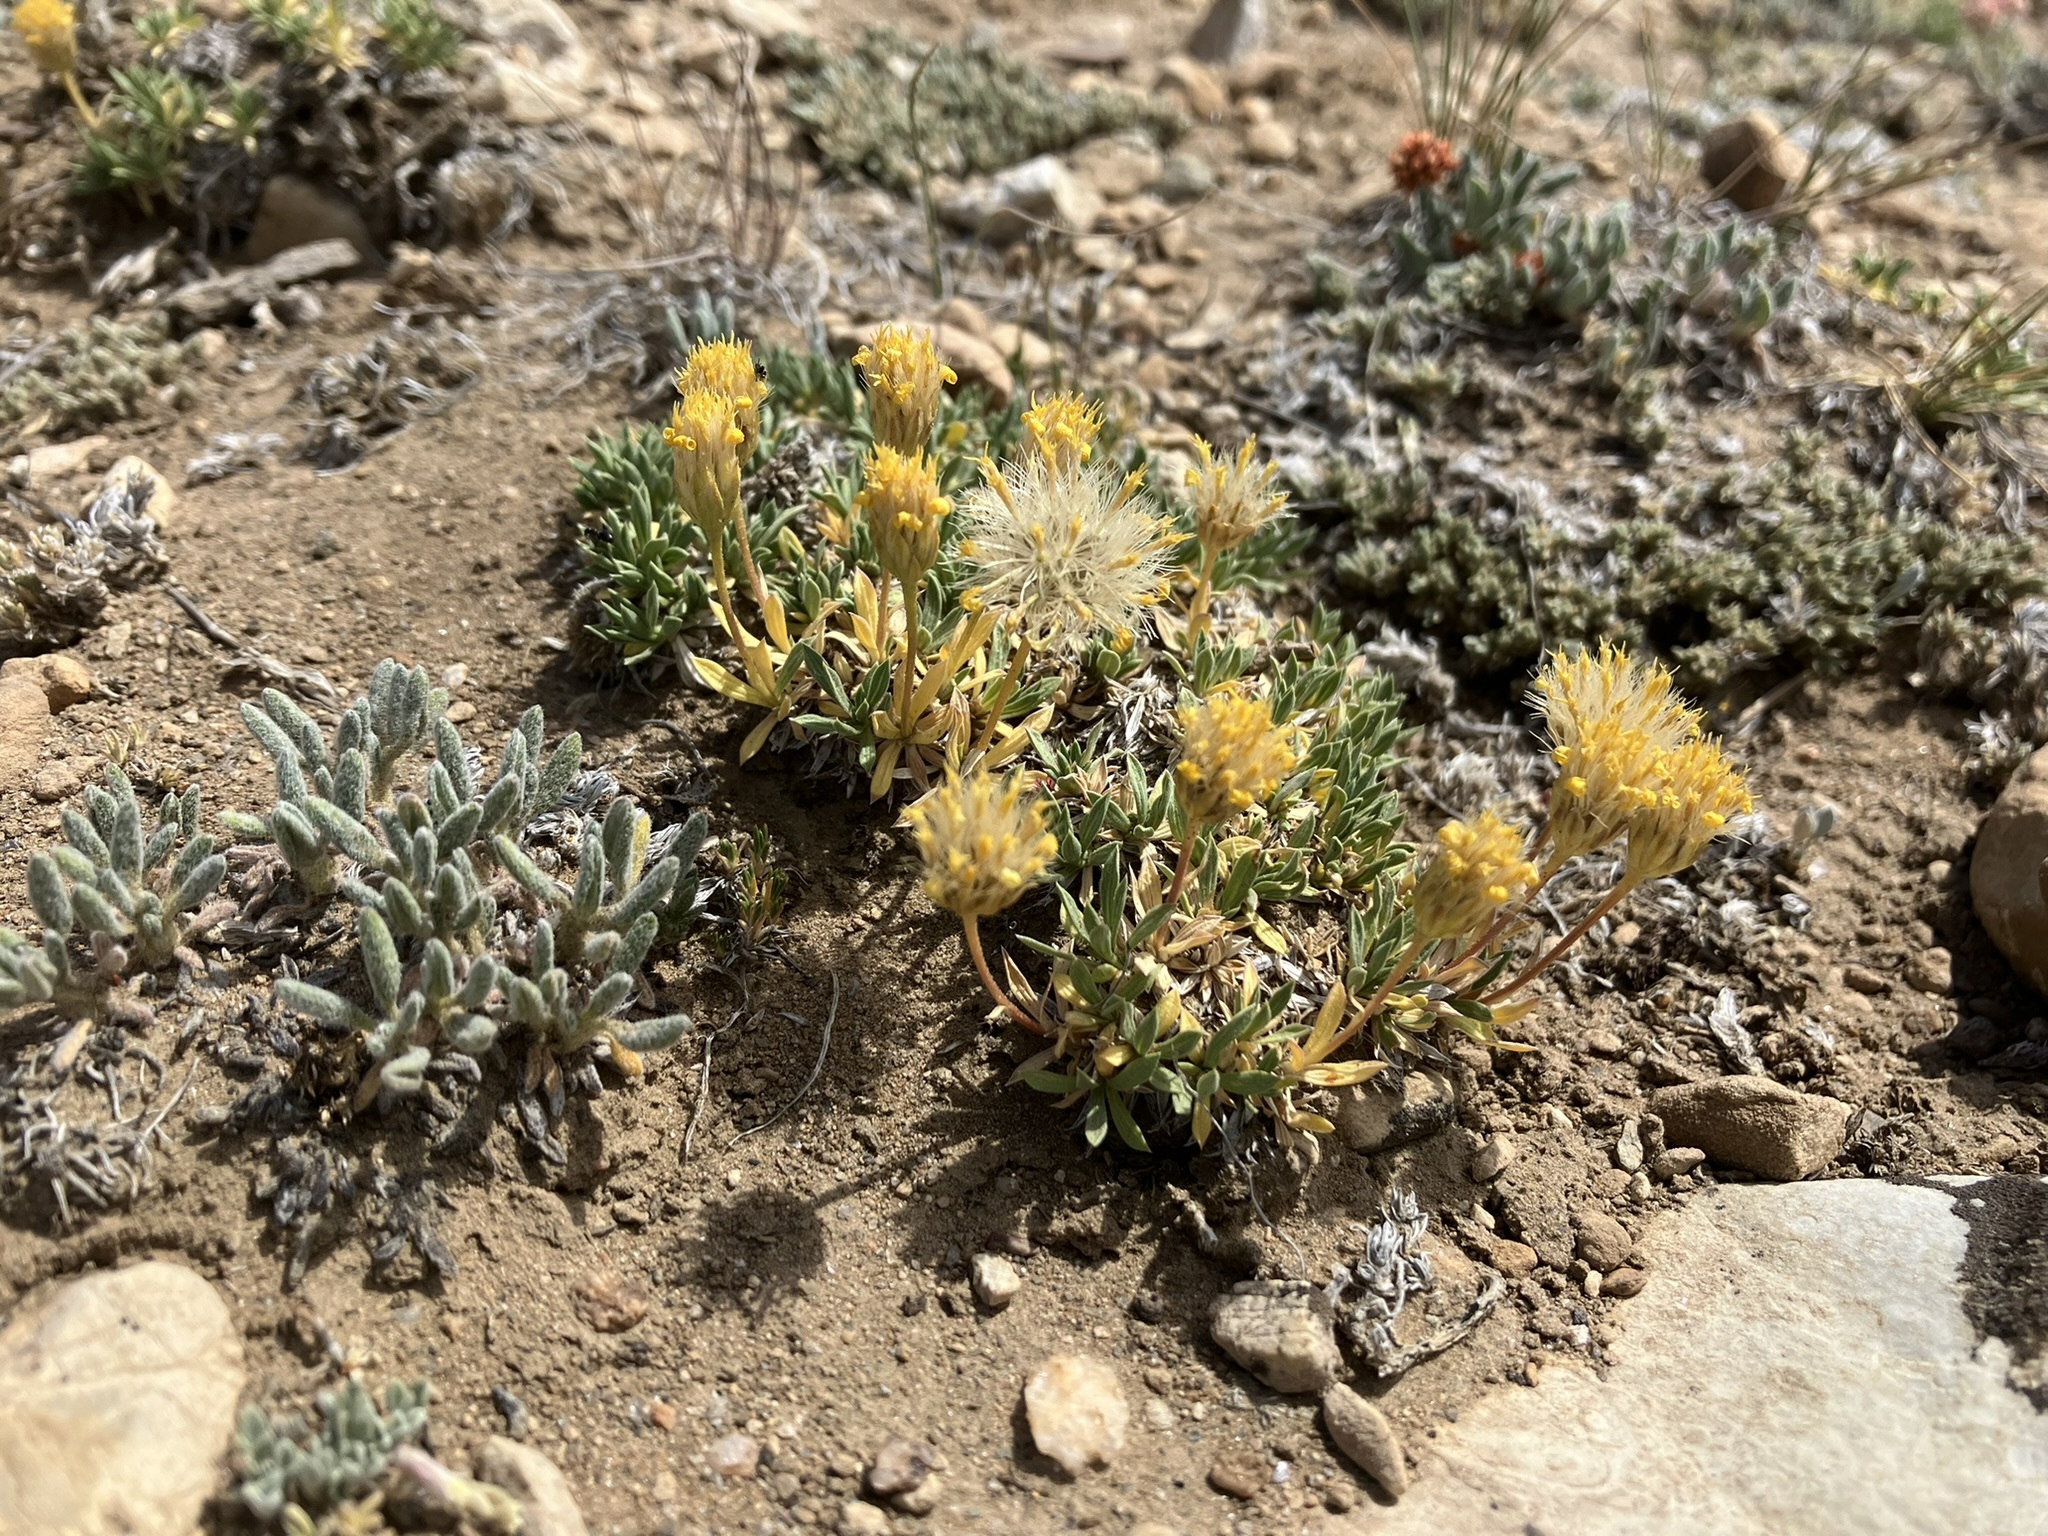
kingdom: Plantae
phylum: Tracheophyta
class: Magnoliopsida
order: Asterales
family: Asteraceae
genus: Stenotus
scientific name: Stenotus acaulis
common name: Stemless goldenweed
